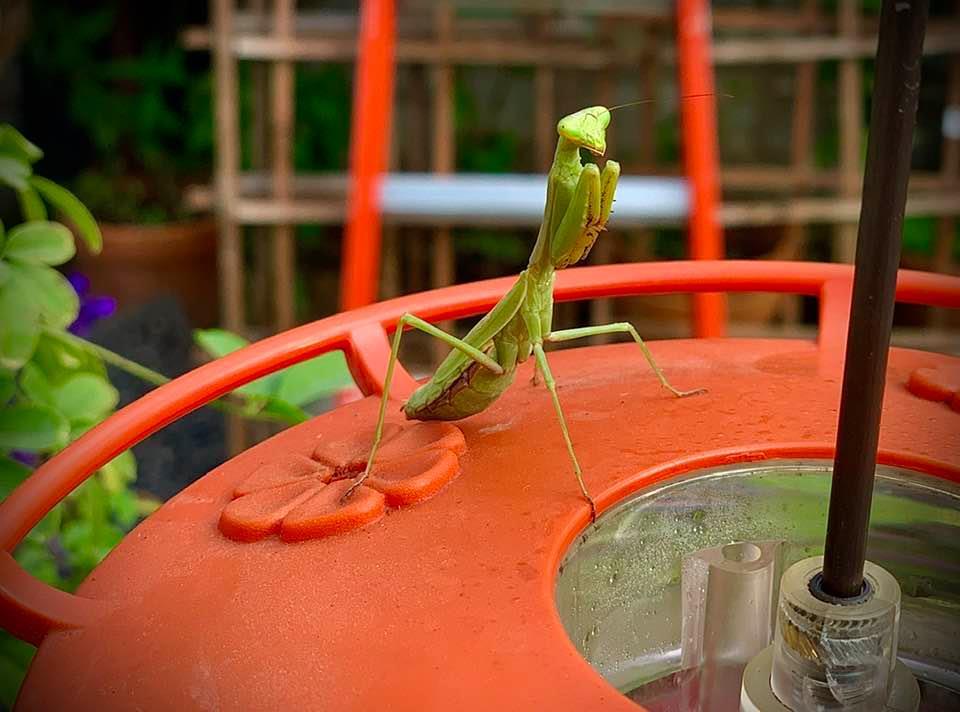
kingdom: Animalia
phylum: Arthropoda
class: Insecta
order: Mantodea
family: Mantidae
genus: Stagmomantis
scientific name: Stagmomantis carolina
